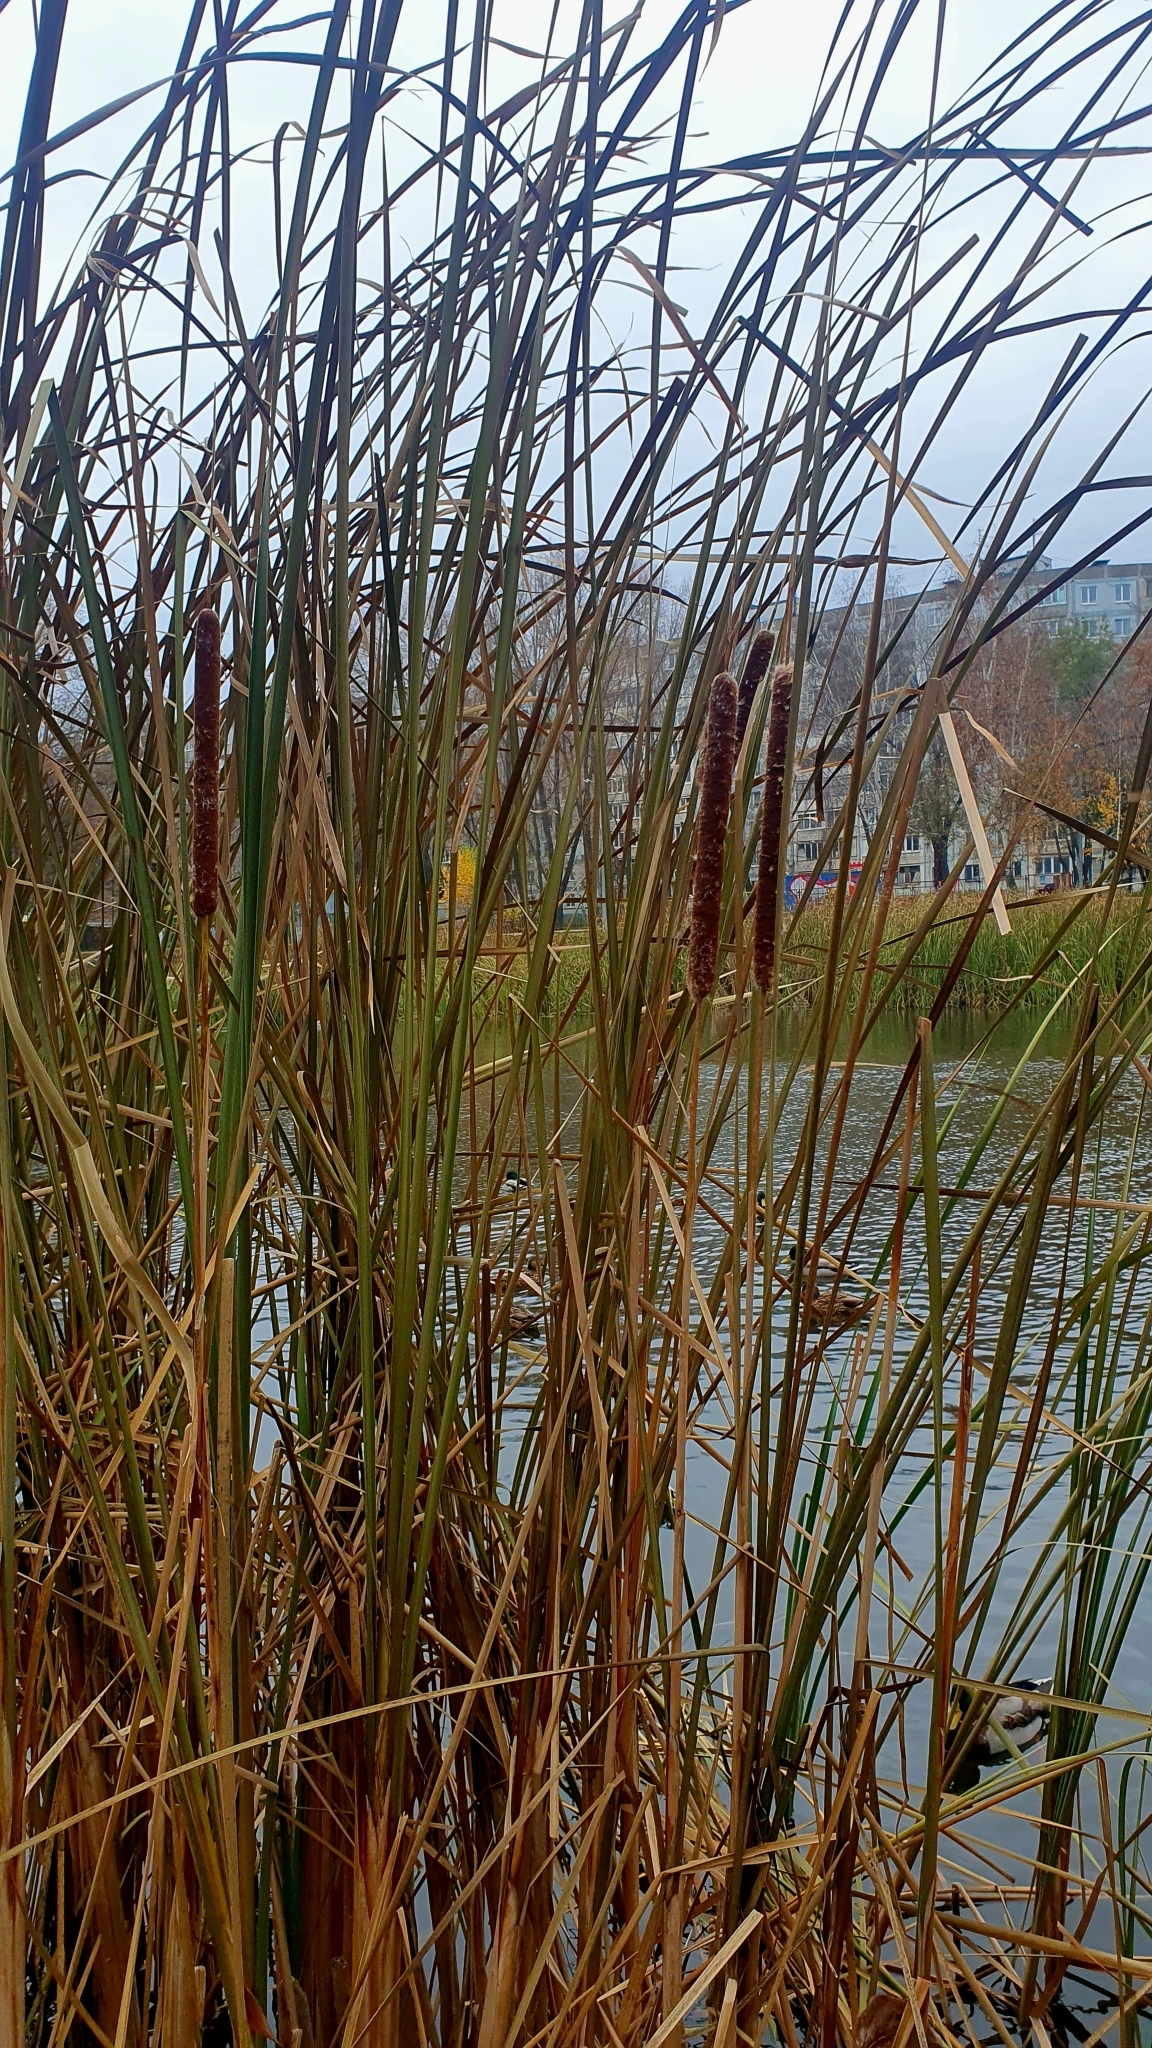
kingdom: Plantae
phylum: Tracheophyta
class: Liliopsida
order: Poales
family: Typhaceae
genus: Typha
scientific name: Typha angustifolia
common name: Lesser bulrush
